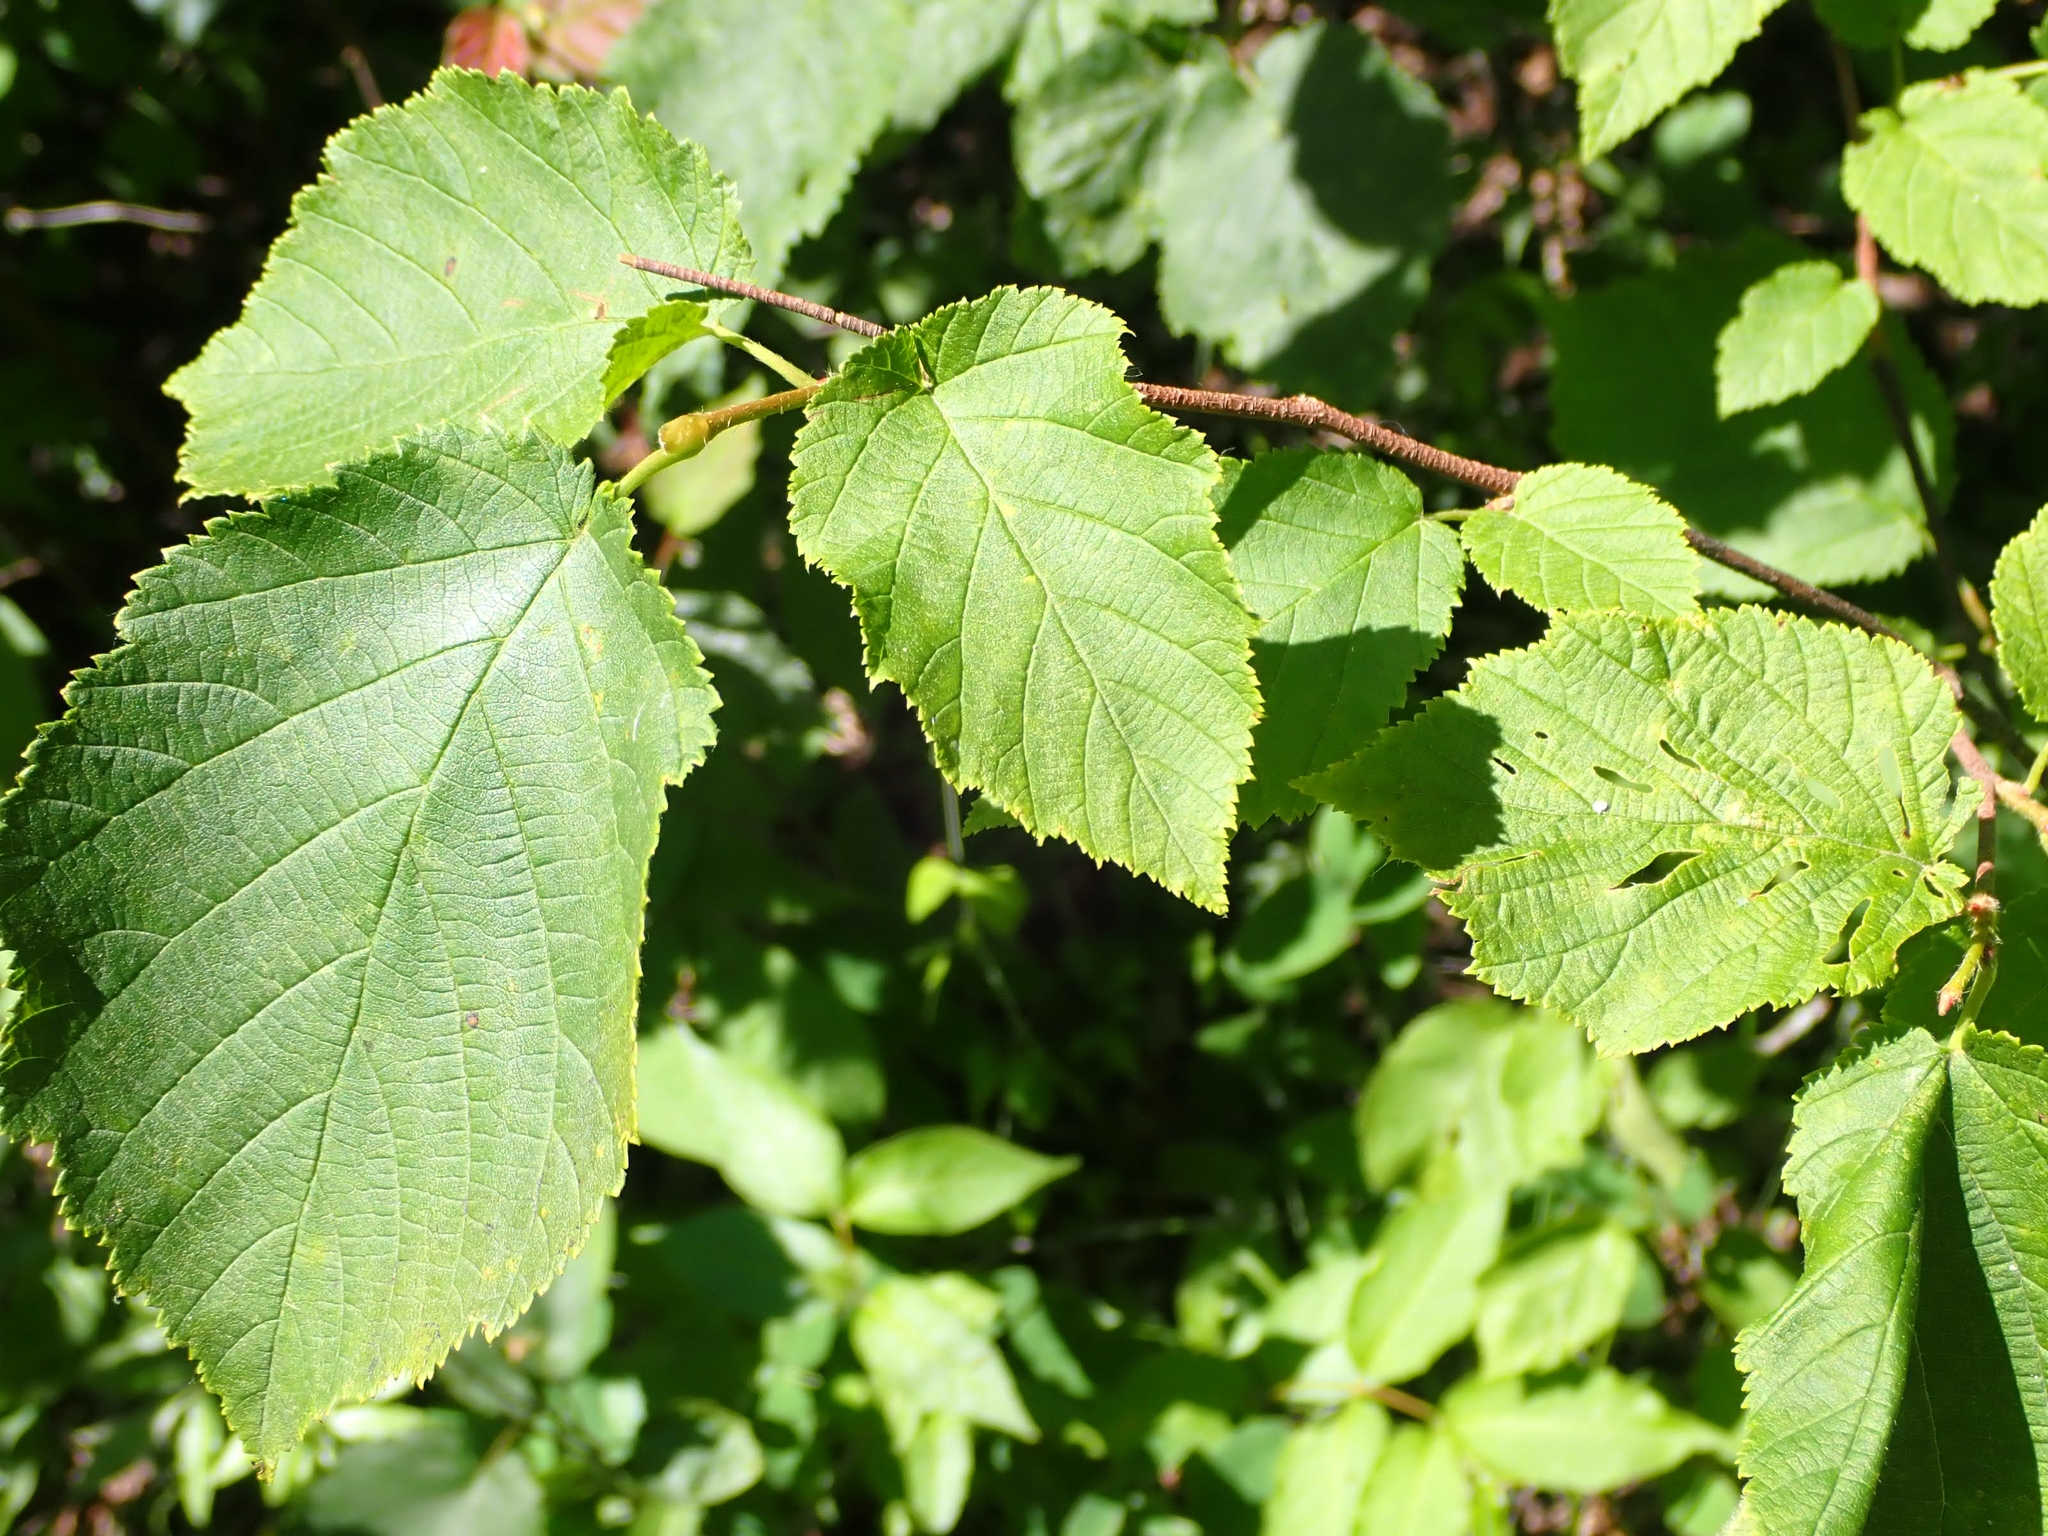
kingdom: Plantae
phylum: Tracheophyta
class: Magnoliopsida
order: Fagales
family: Betulaceae
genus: Corylus
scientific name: Corylus americana
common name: American hazel
